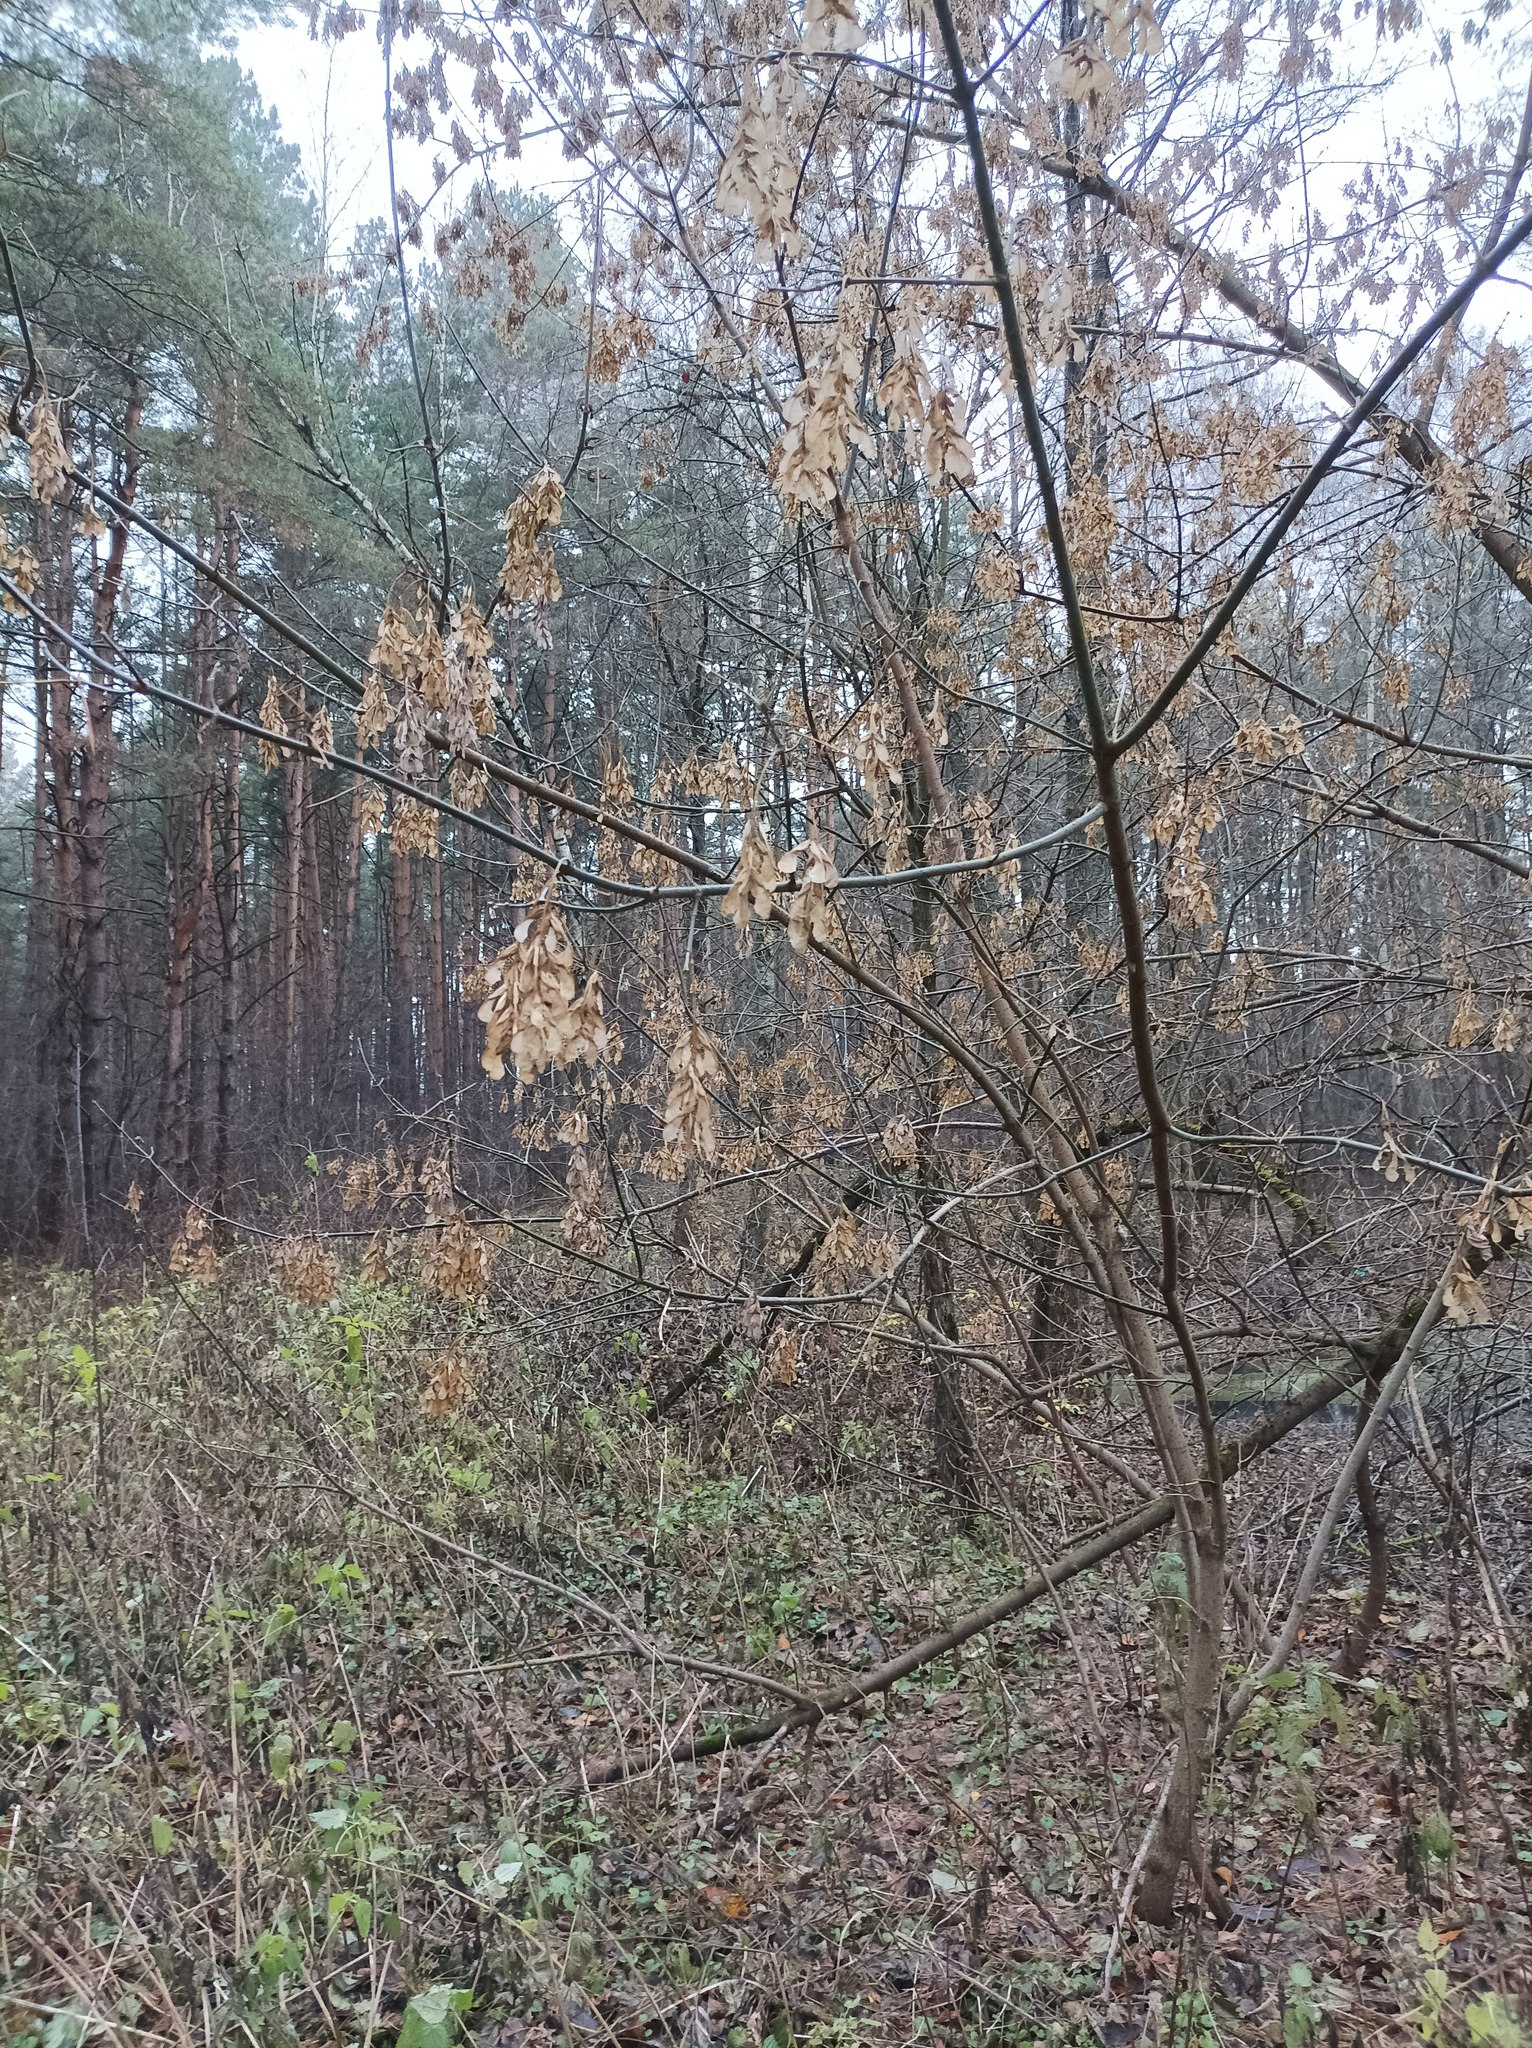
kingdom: Plantae
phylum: Tracheophyta
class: Magnoliopsida
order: Sapindales
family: Sapindaceae
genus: Acer
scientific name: Acer negundo
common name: Ashleaf maple
